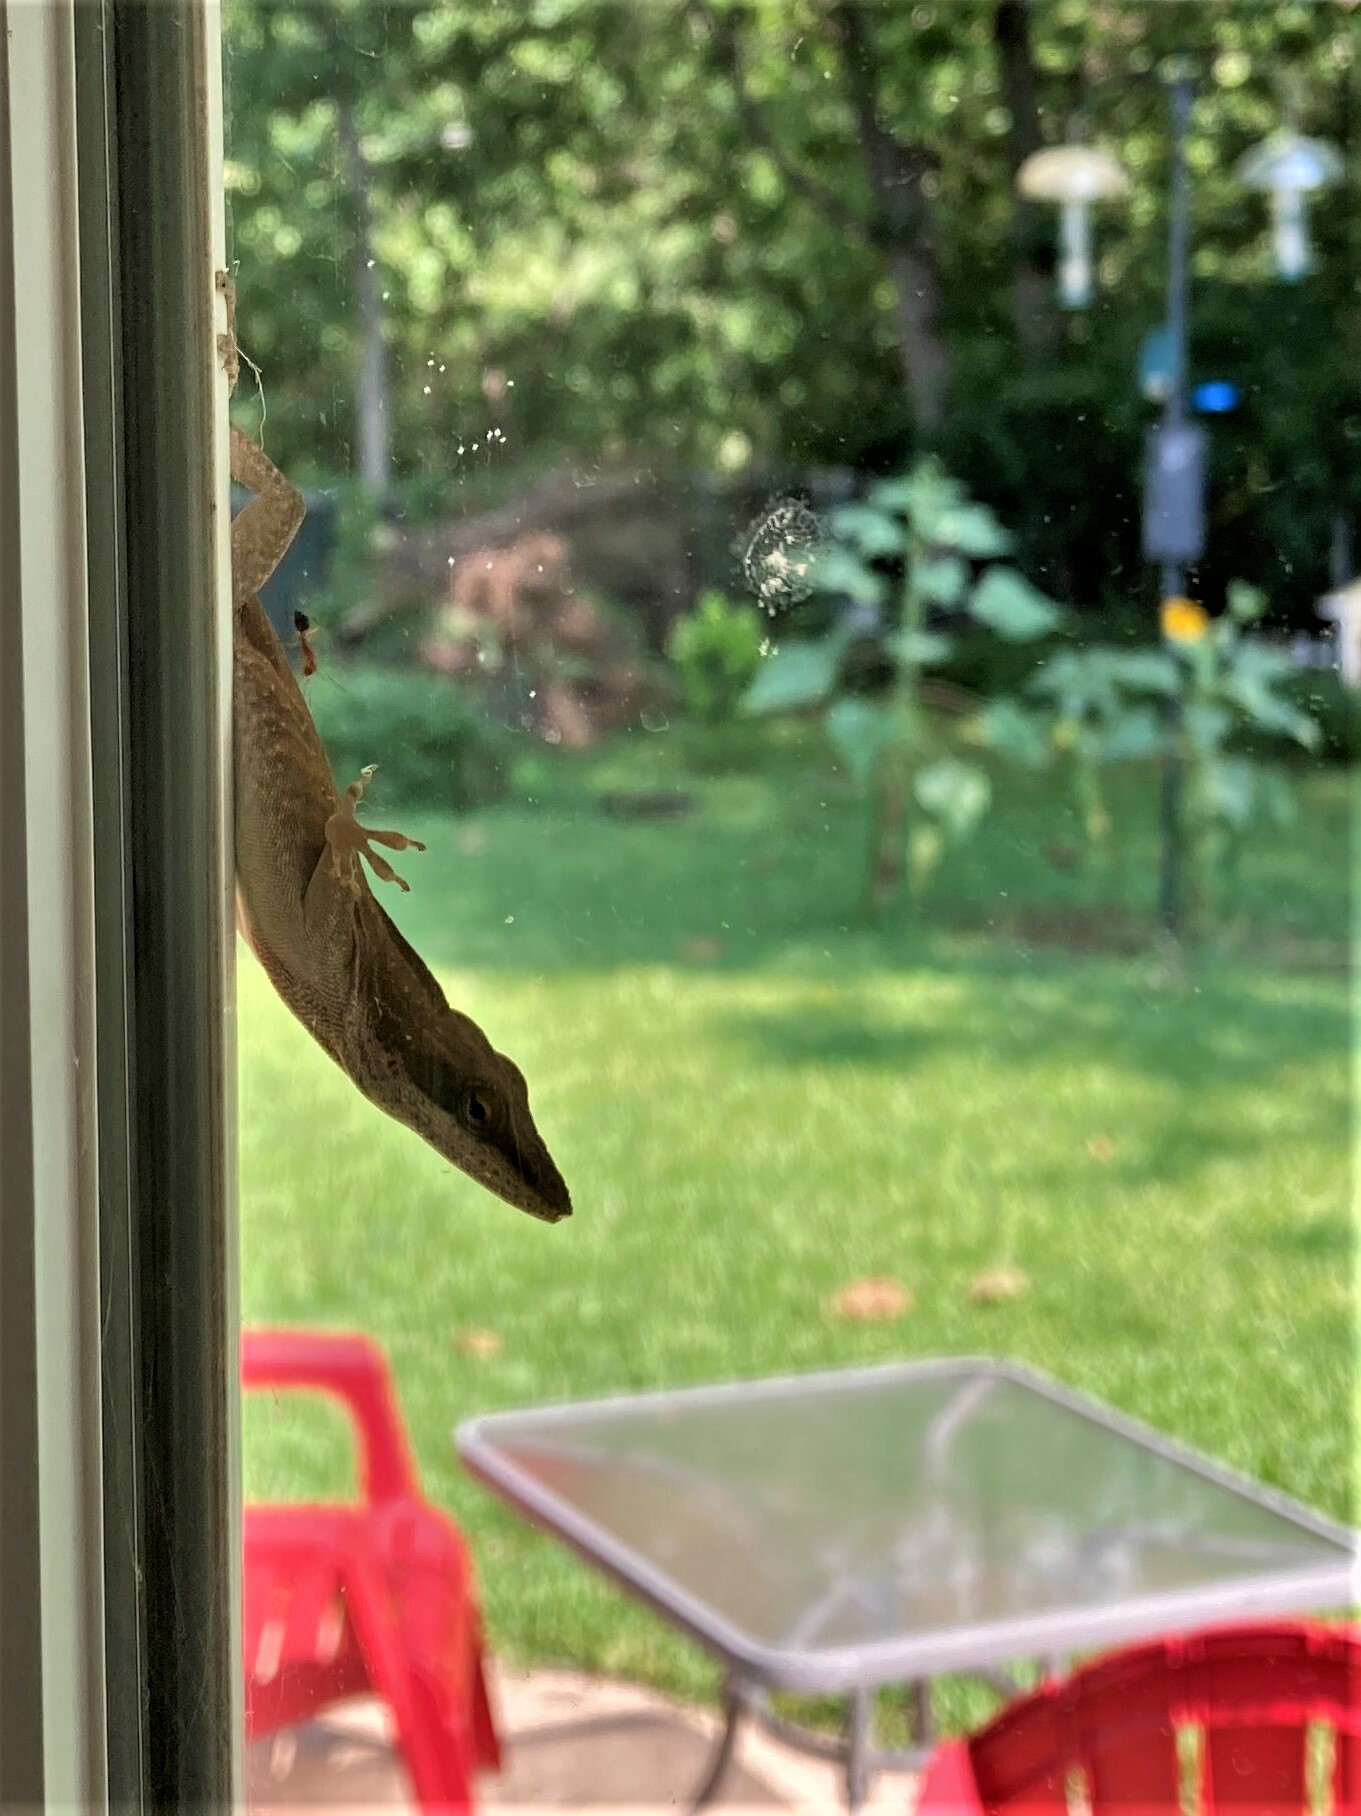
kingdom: Animalia
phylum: Chordata
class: Squamata
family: Dactyloidae
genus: Anolis
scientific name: Anolis carolinensis
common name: Green anole
